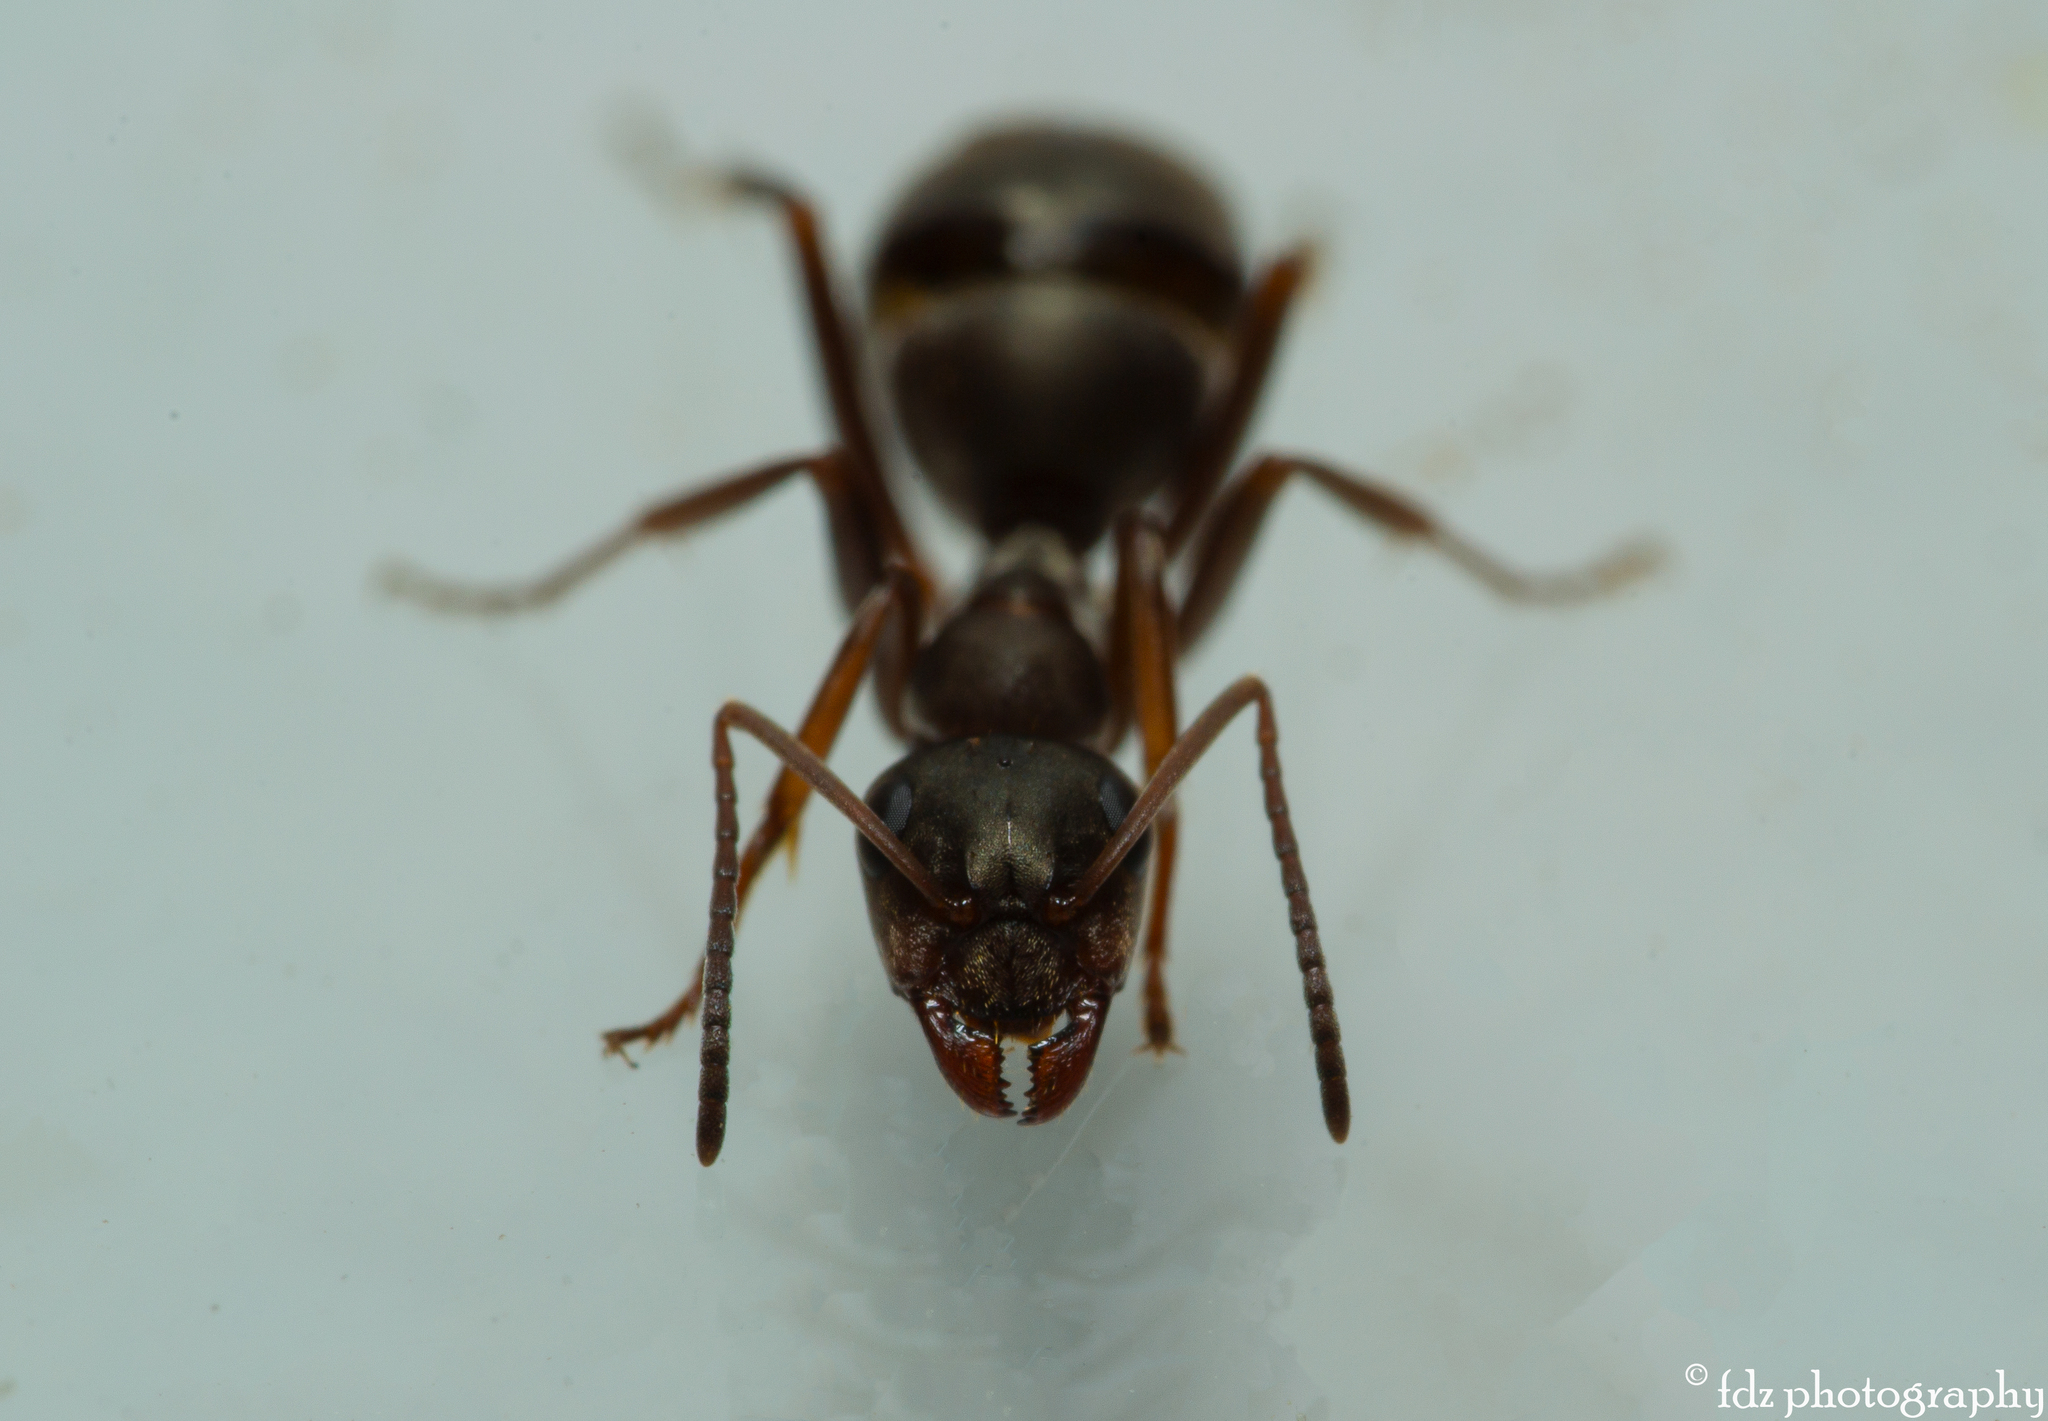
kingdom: Animalia
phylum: Arthropoda
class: Insecta
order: Hymenoptera
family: Formicidae
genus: Formica
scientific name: Formica cunicularia
